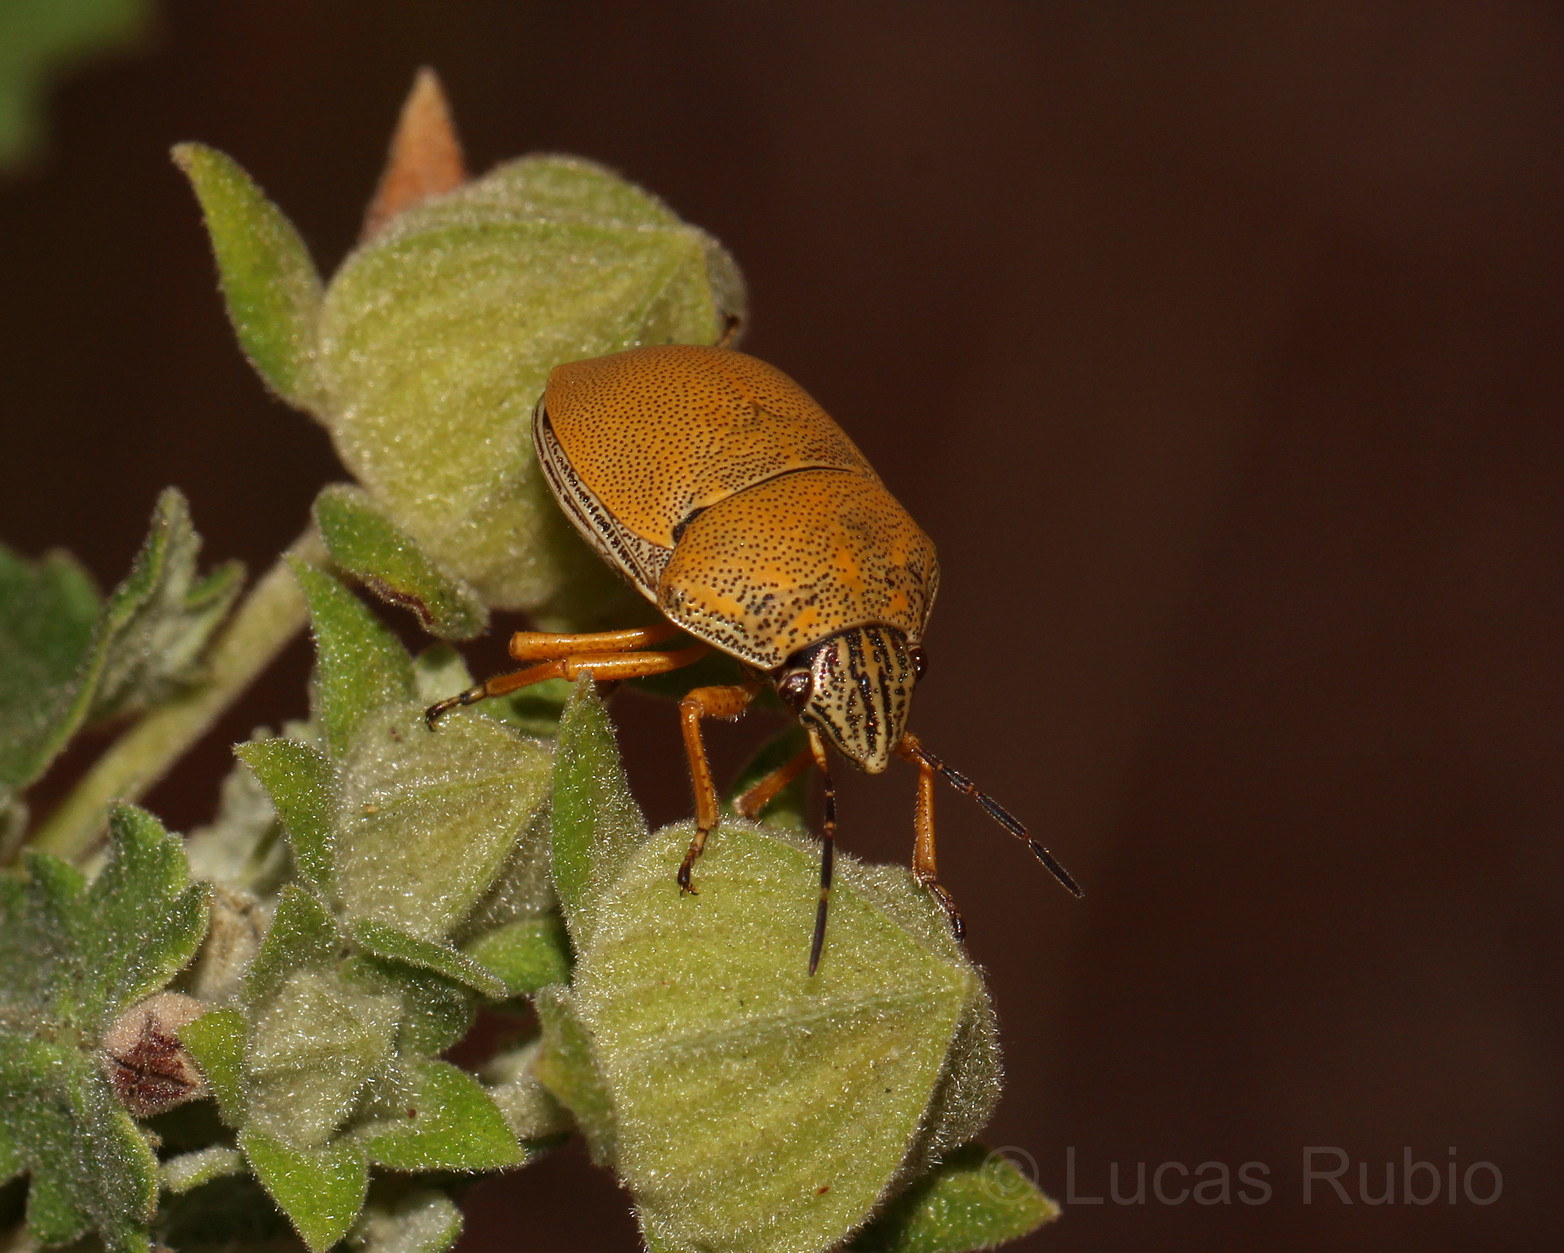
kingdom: Animalia
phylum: Arthropoda
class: Insecta
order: Hemiptera
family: Scutelleridae
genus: Orsilochides
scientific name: Orsilochides
